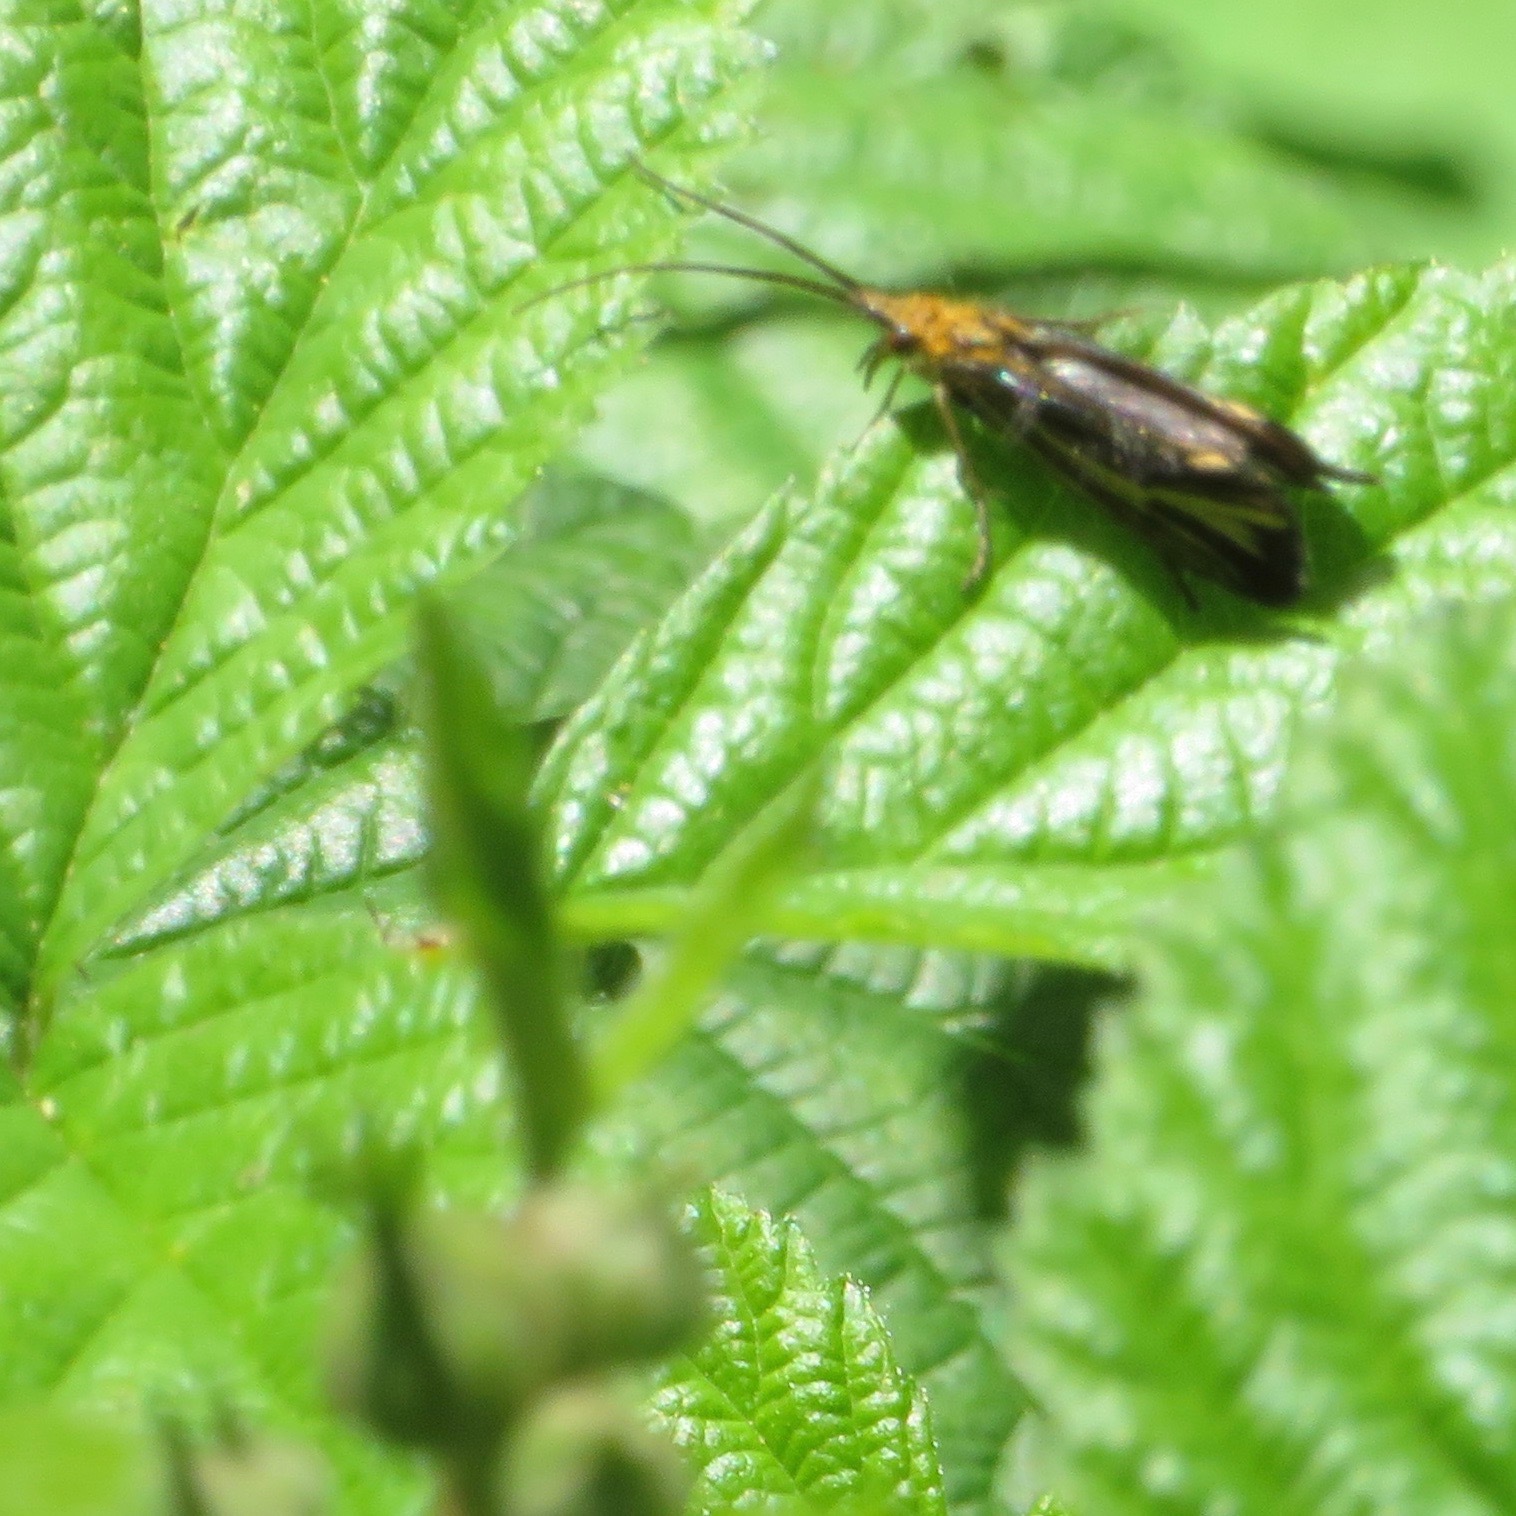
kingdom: Animalia
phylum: Arthropoda
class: Insecta
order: Trichoptera
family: Odontoceridae
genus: Nerophilus
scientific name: Nerophilus californicus
